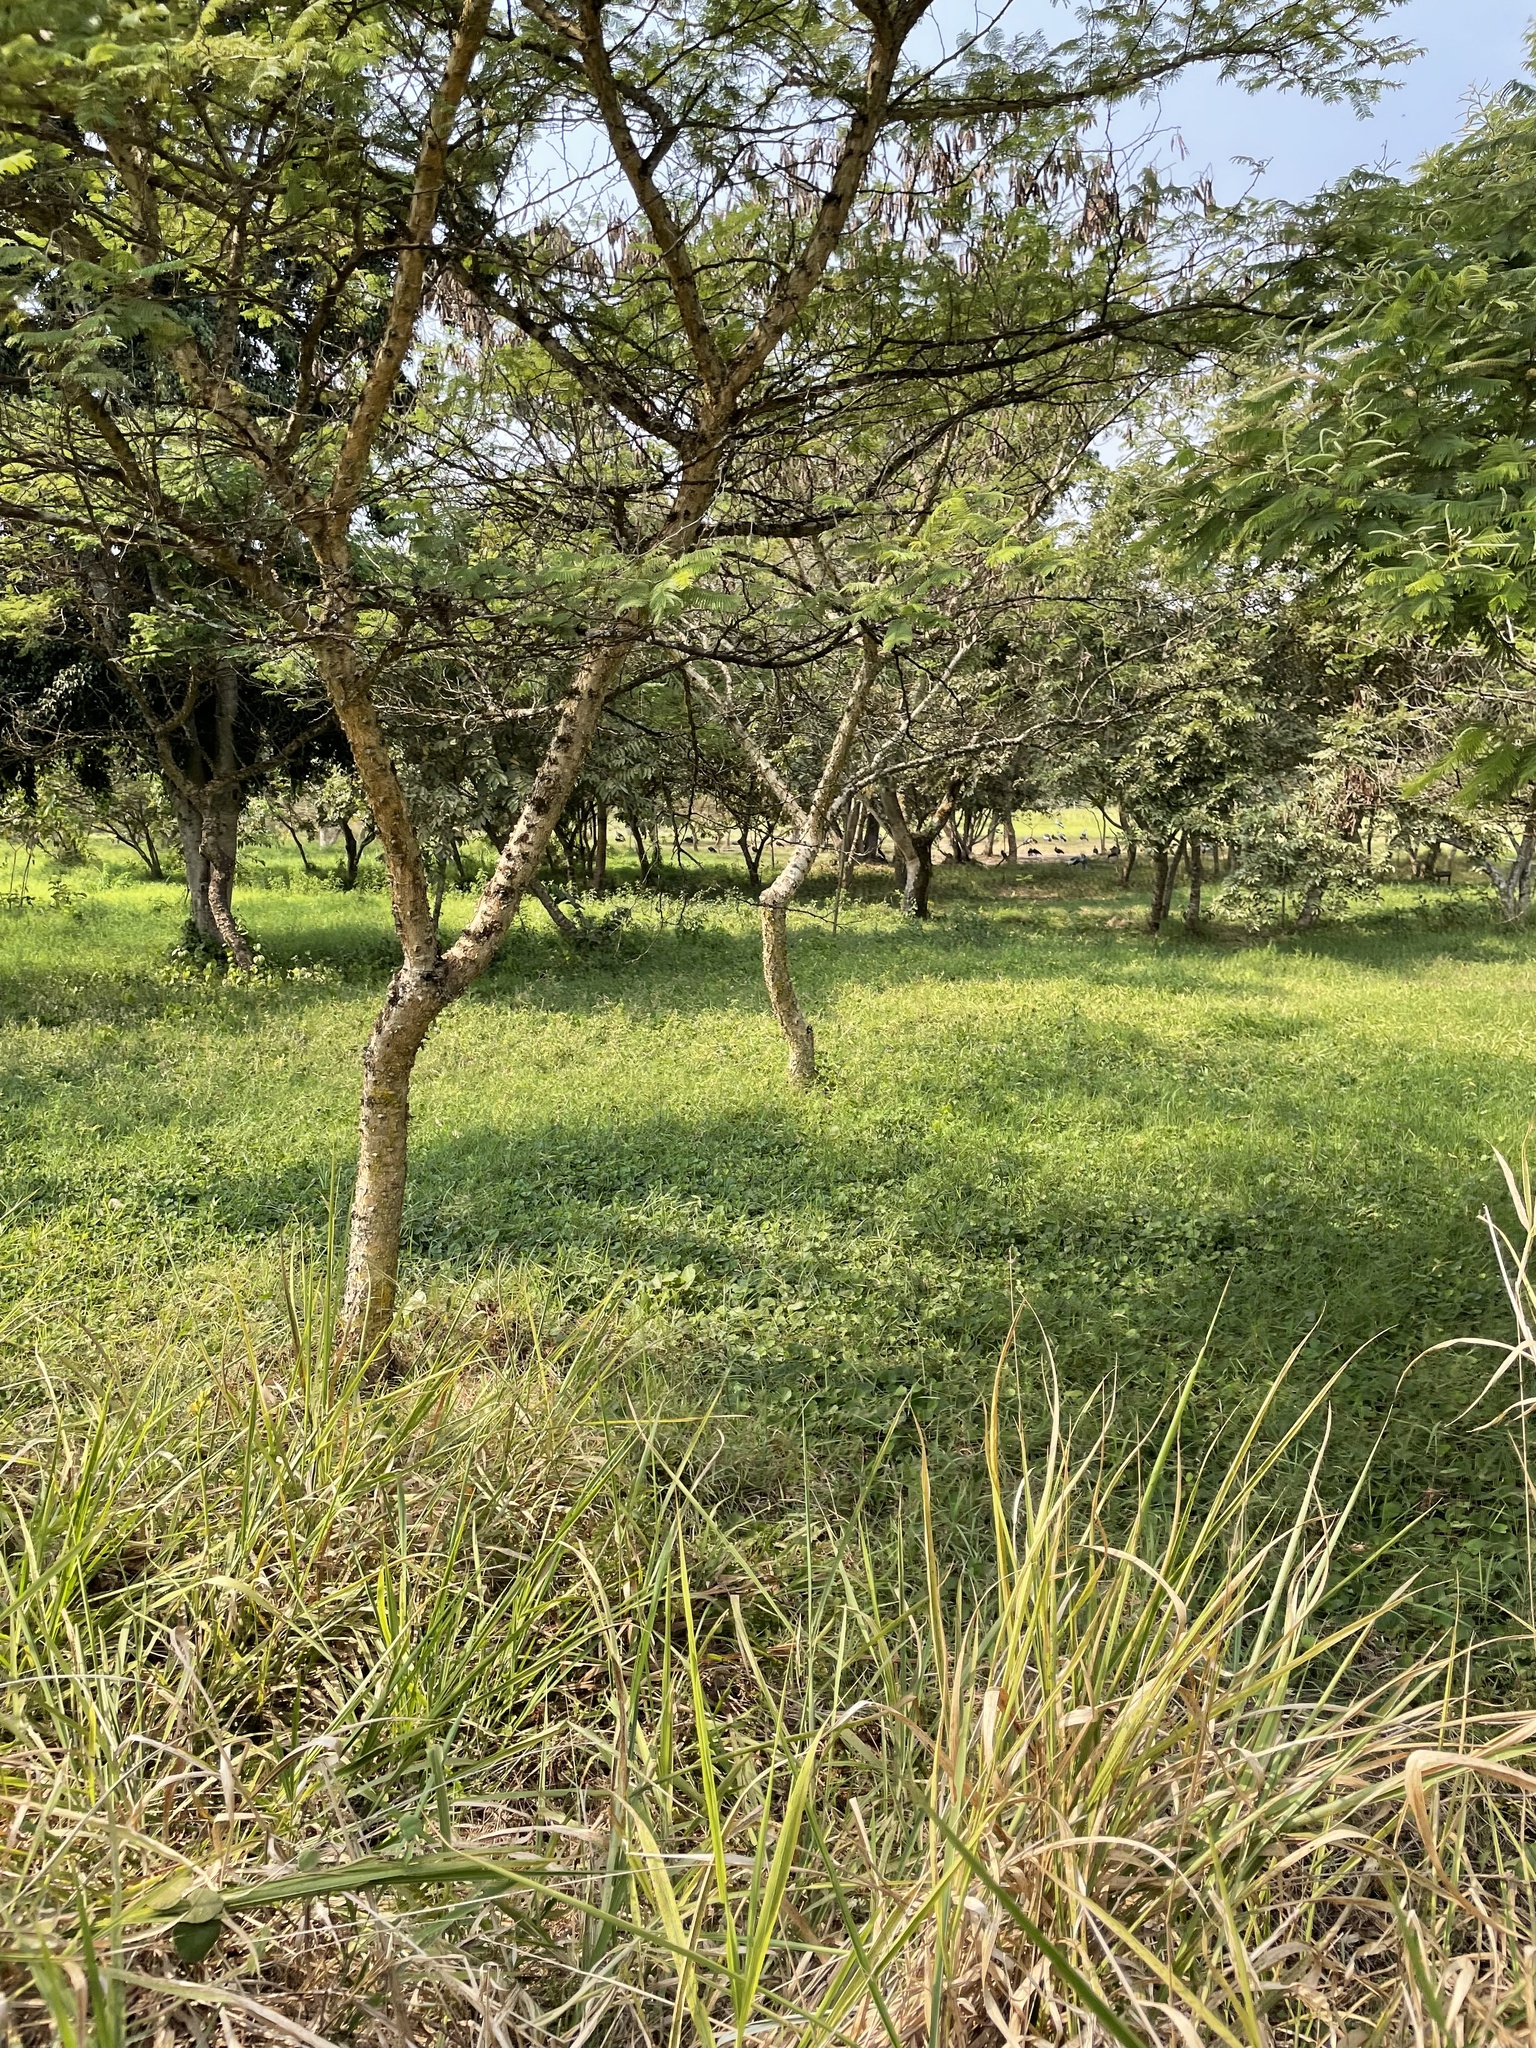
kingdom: Animalia
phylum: Chordata
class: Aves
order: Gruiformes
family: Gruidae
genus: Balearica
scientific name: Balearica regulorum
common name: Grey crowned crane
